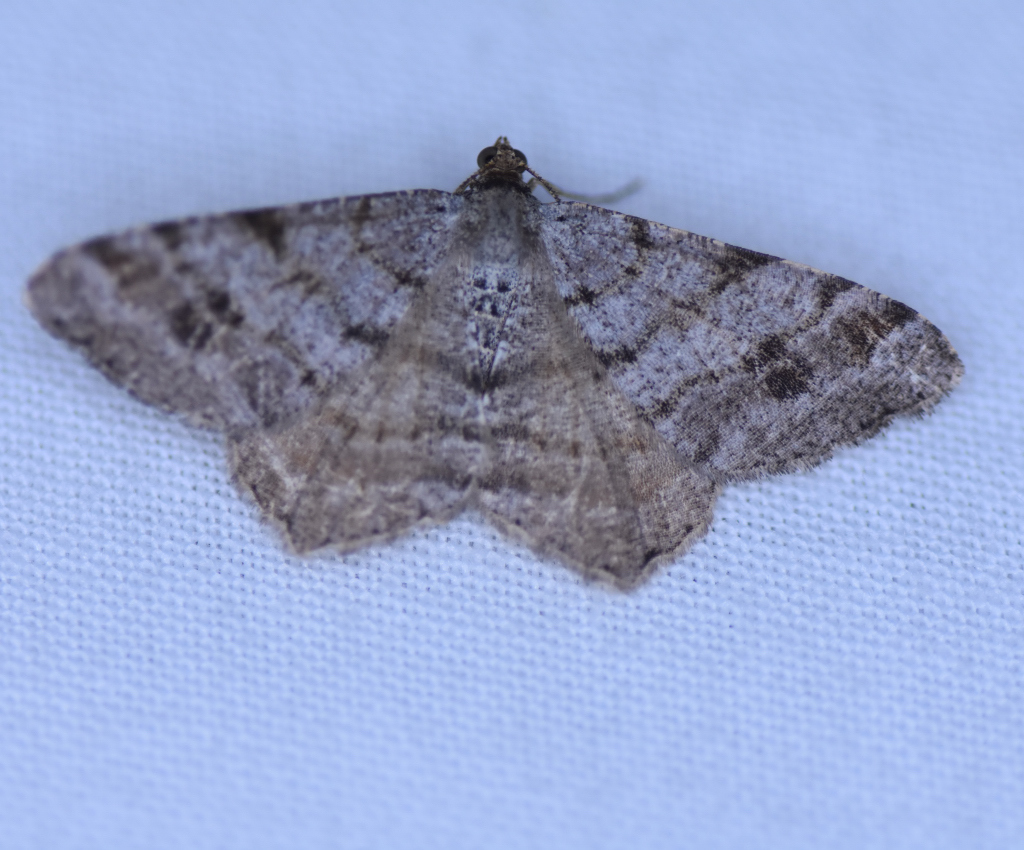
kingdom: Animalia
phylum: Arthropoda
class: Insecta
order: Lepidoptera
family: Geometridae
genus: Macaria
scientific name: Macaria pinistrobata
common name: White pine angle
